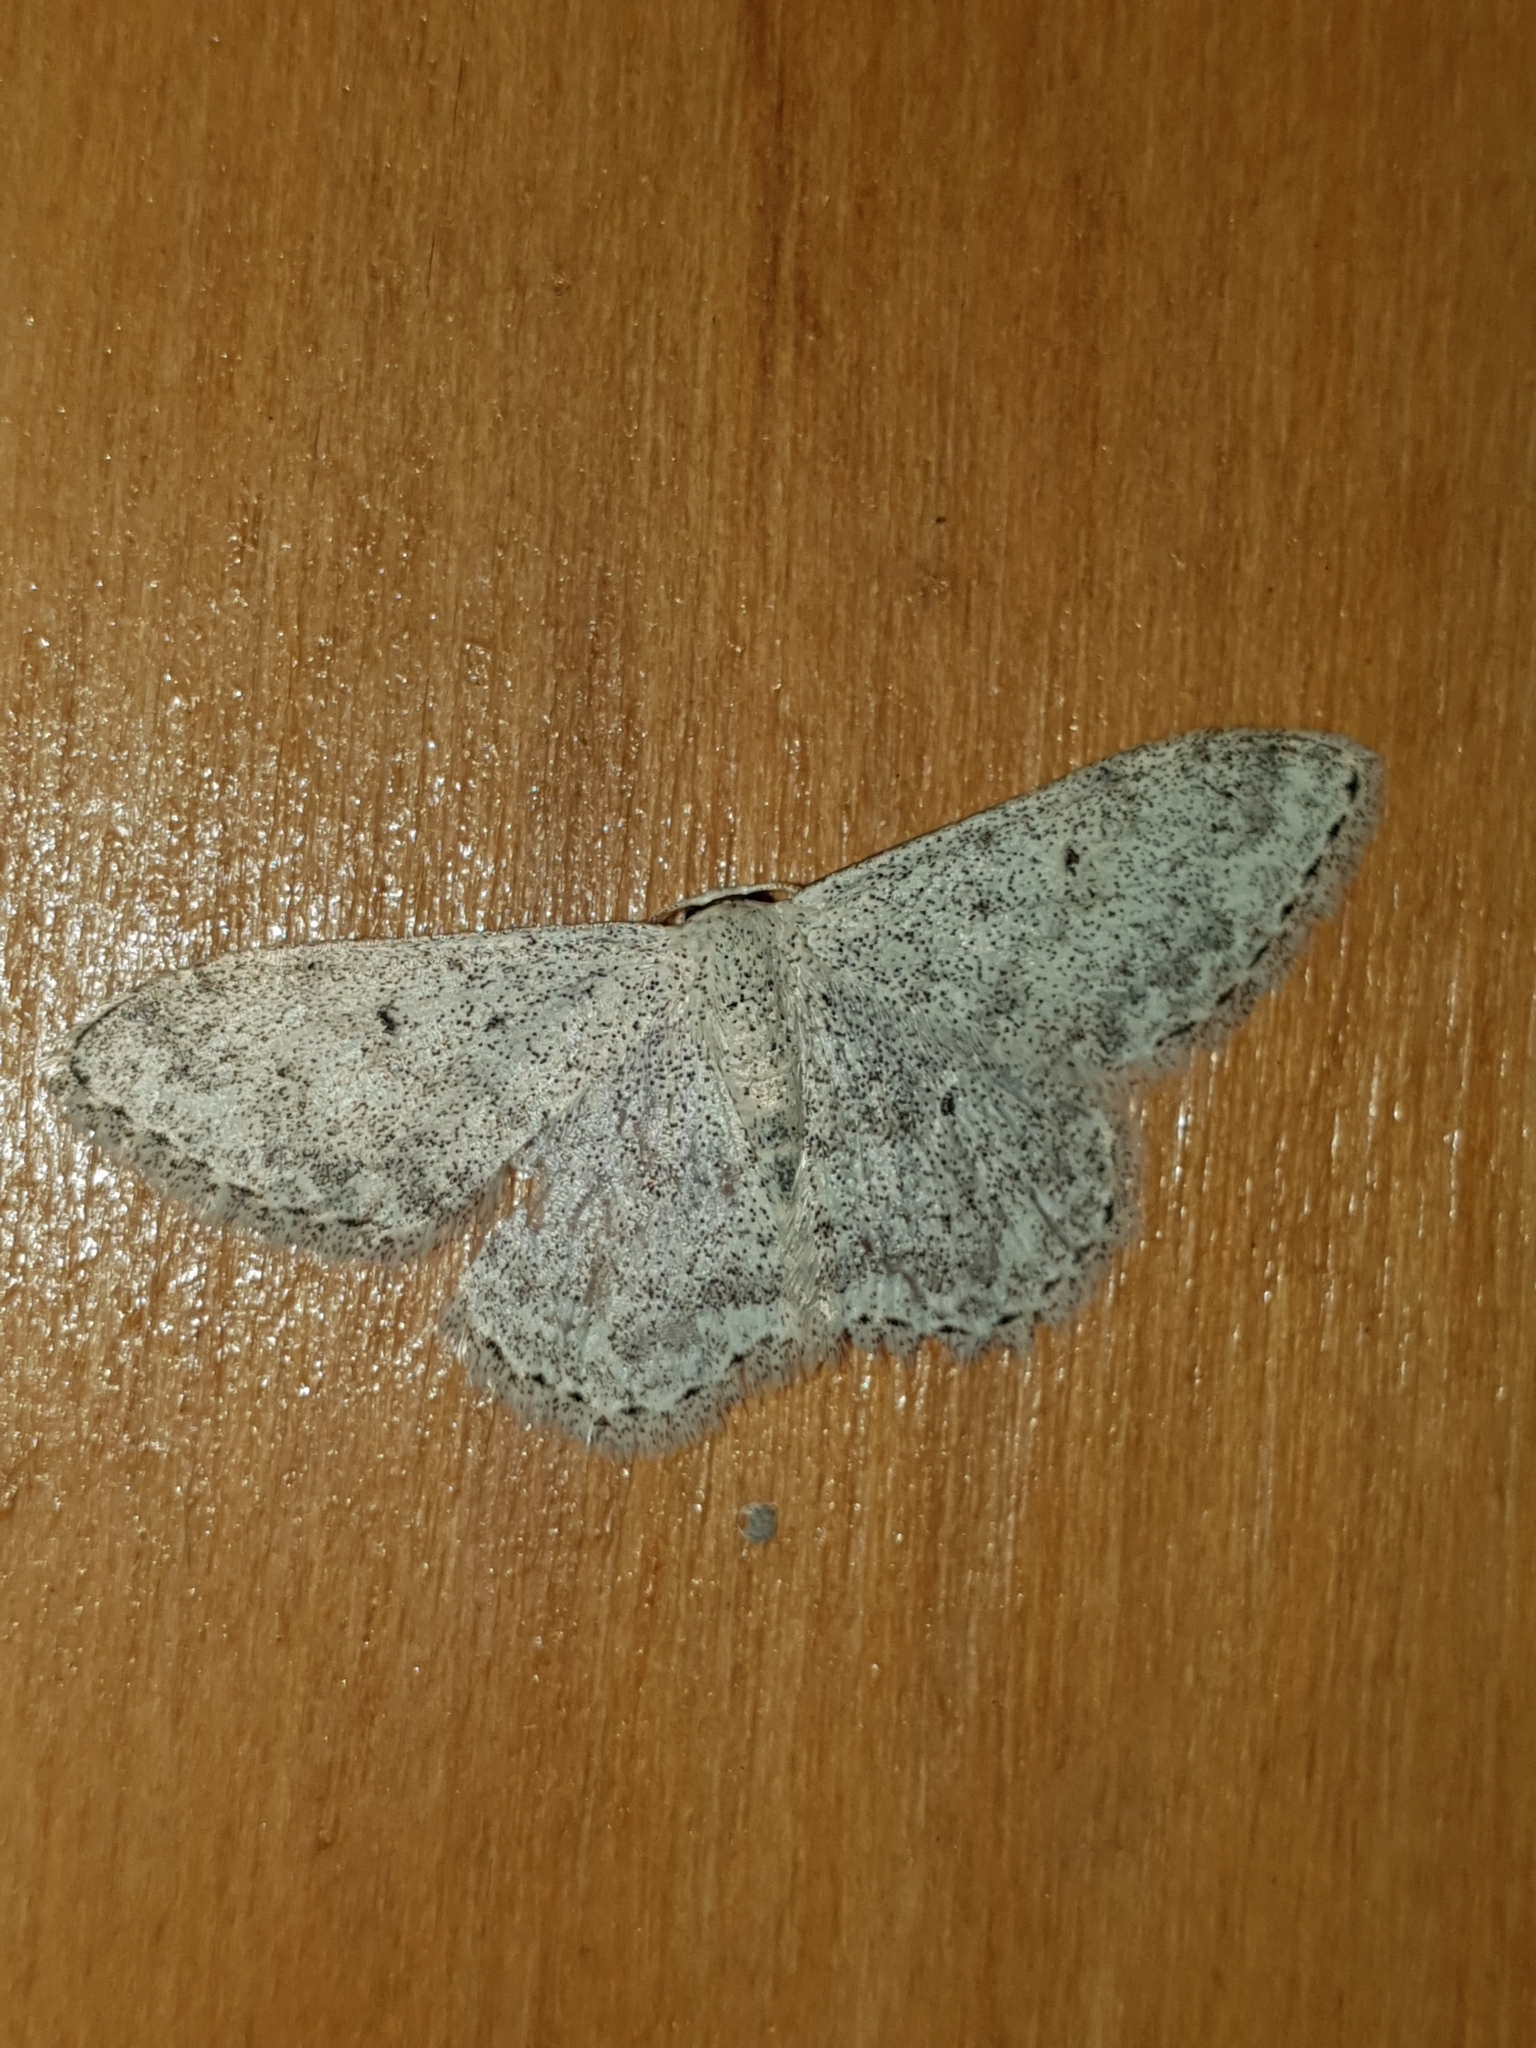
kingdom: Animalia
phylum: Arthropoda
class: Insecta
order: Lepidoptera
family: Geometridae
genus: Scopula
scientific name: Scopula marginepunctata
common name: Mullein wave
